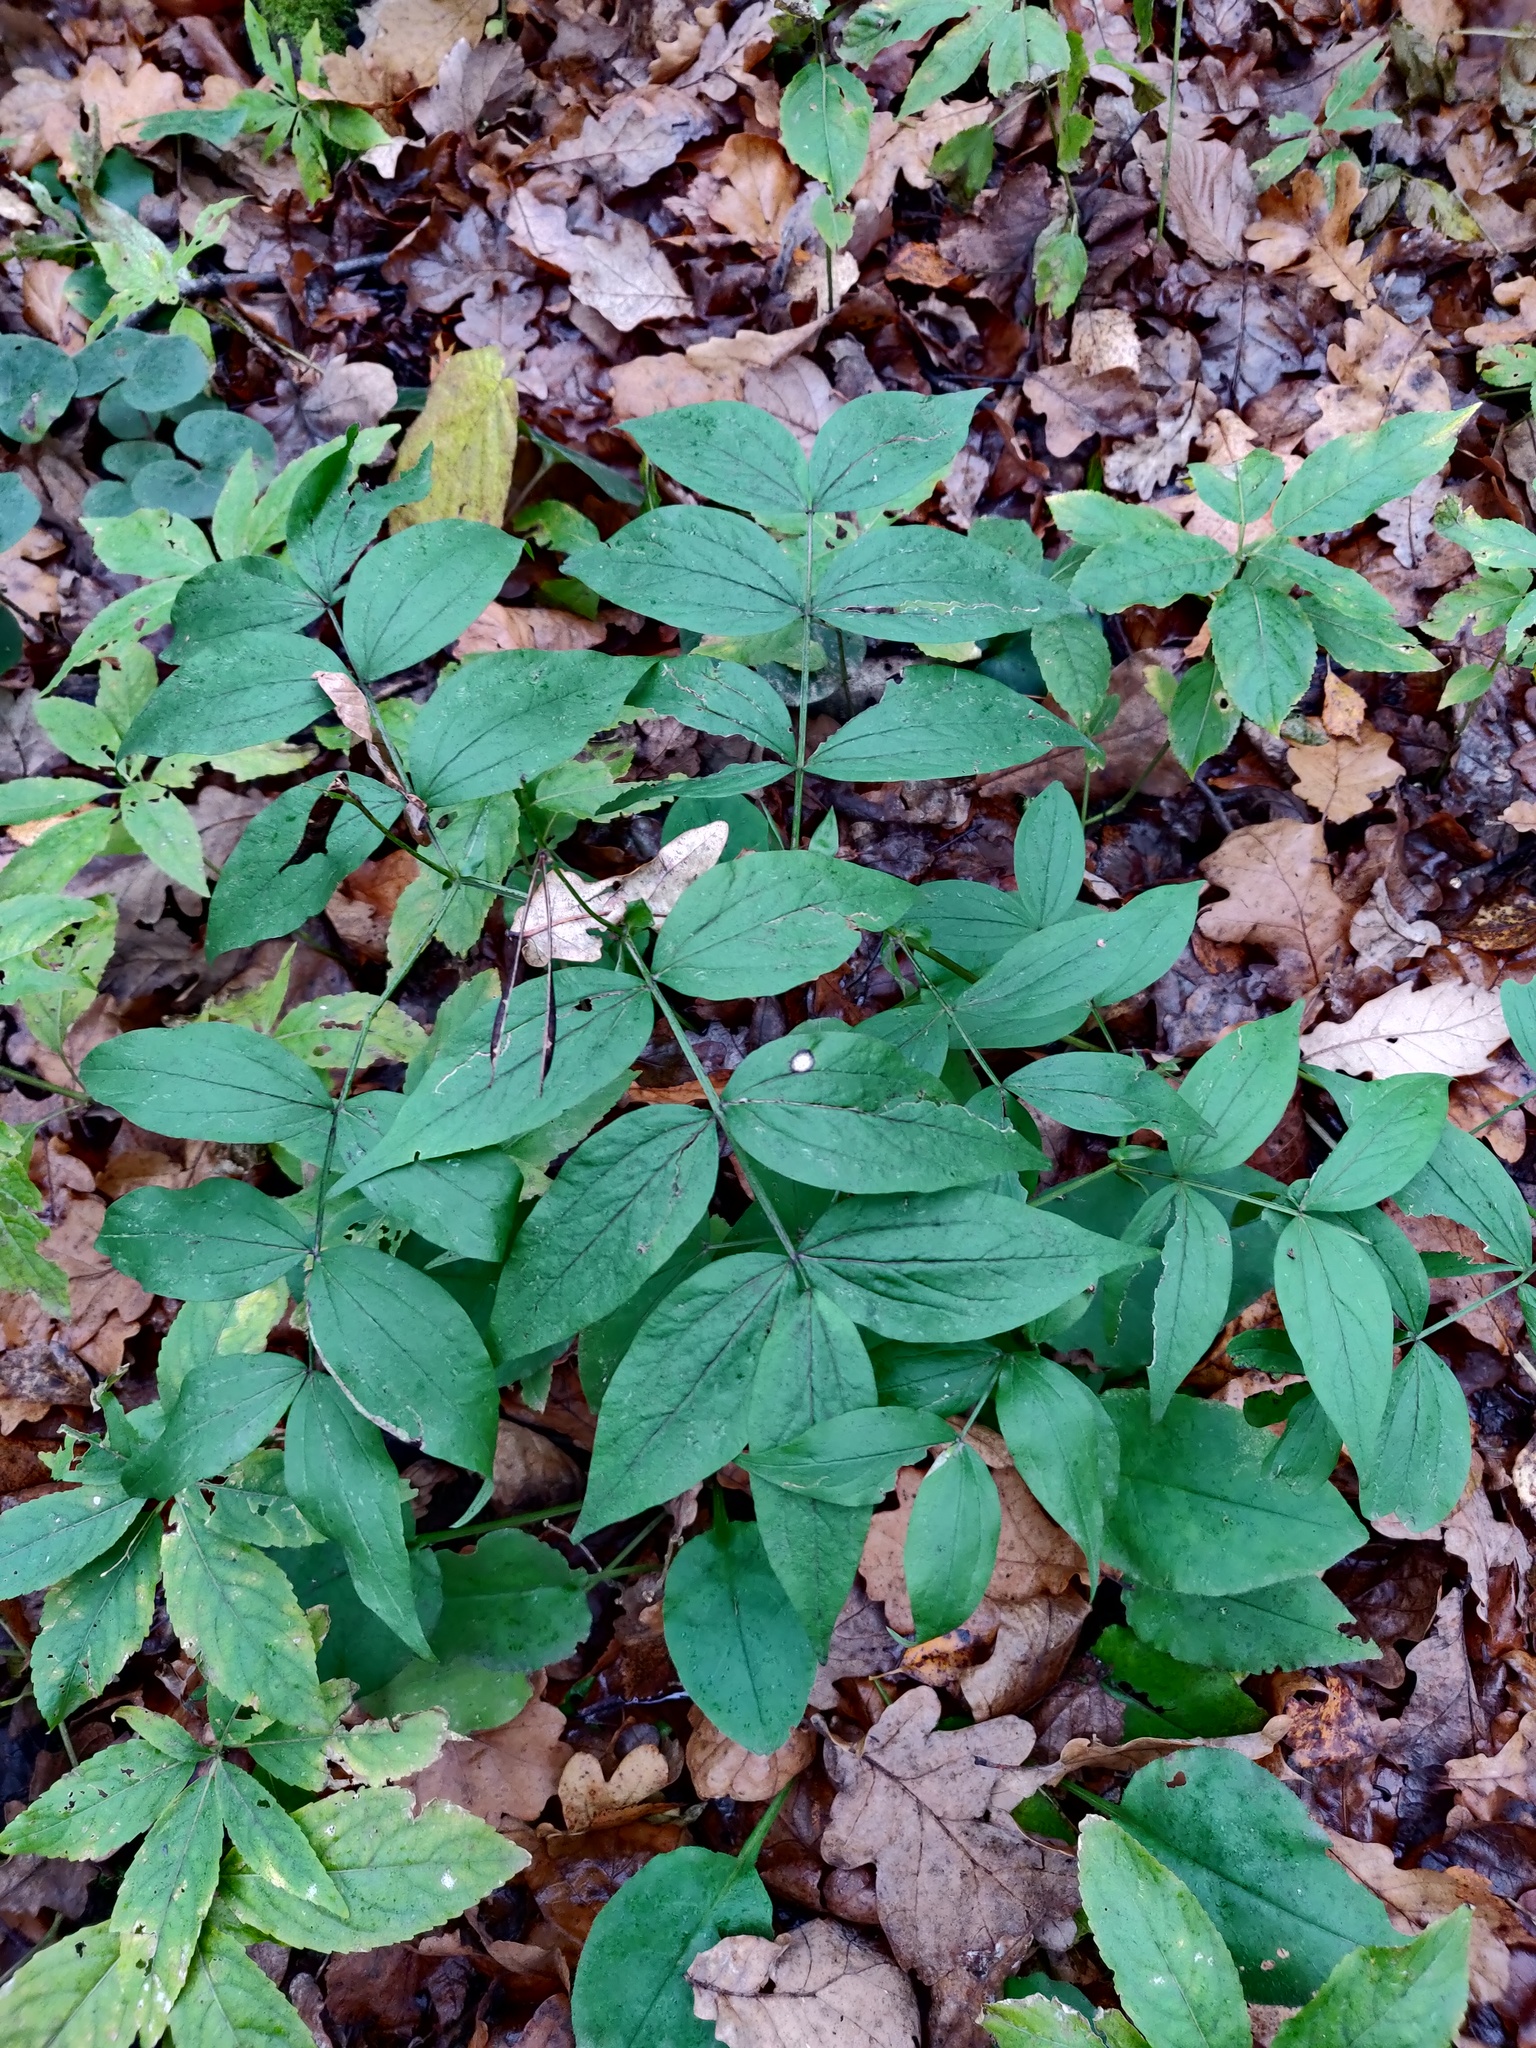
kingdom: Plantae
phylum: Tracheophyta
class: Magnoliopsida
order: Fabales
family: Fabaceae
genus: Lathyrus
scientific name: Lathyrus vernus
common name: Spring pea
